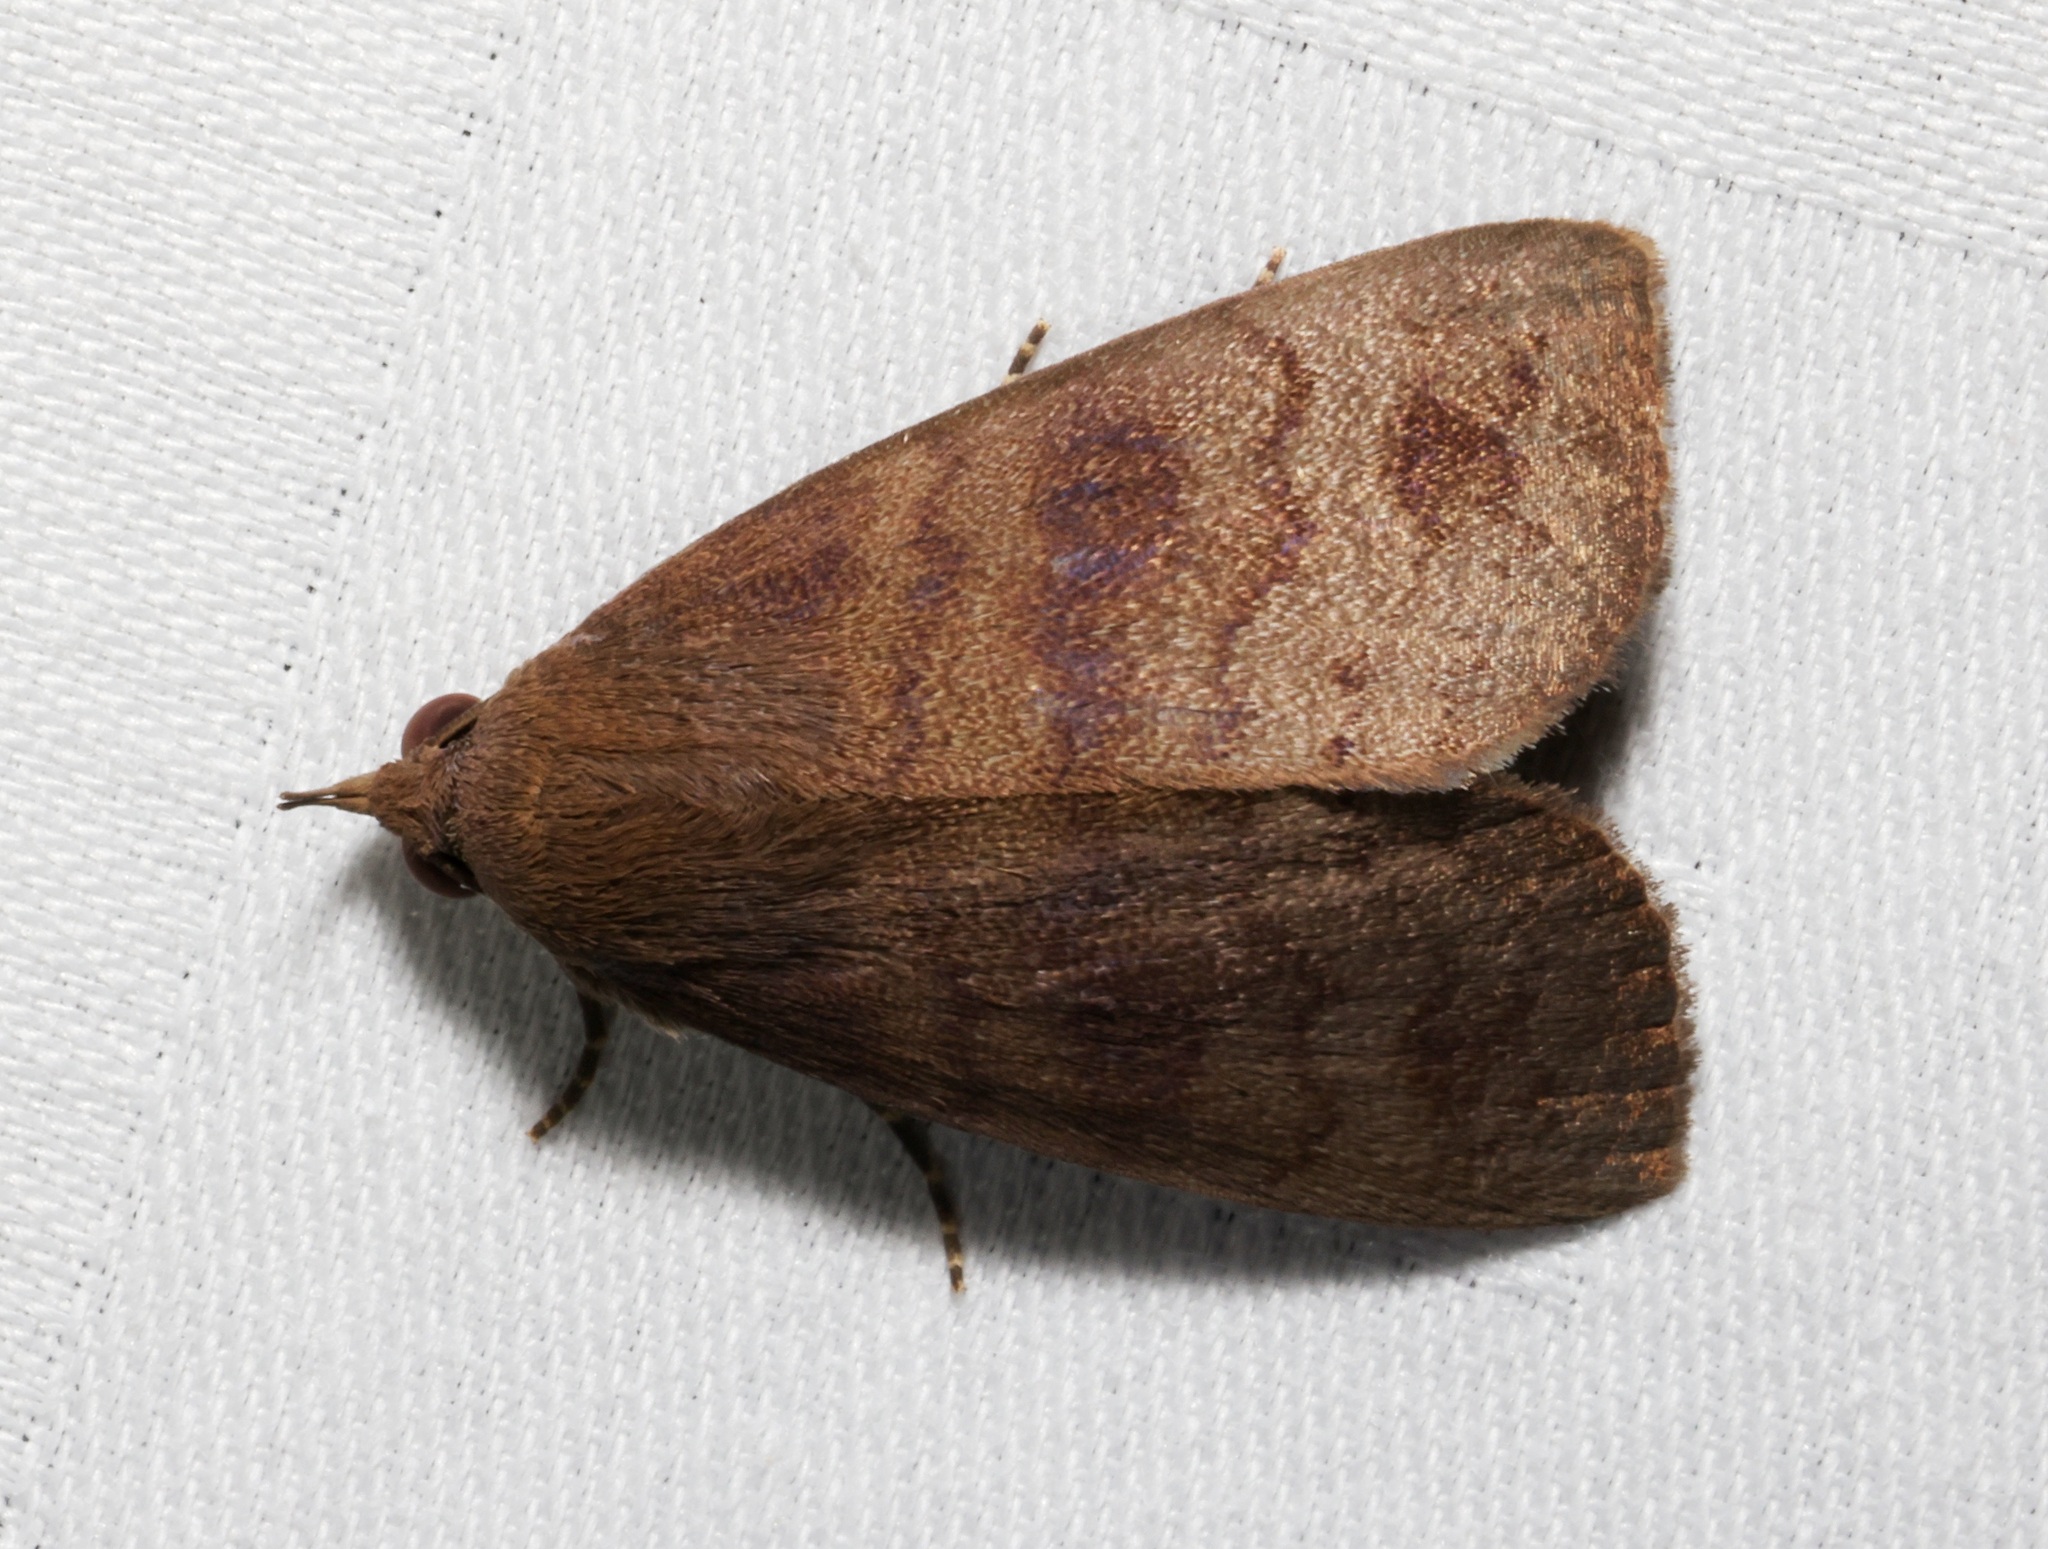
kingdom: Animalia
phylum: Arthropoda
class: Insecta
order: Lepidoptera
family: Erebidae
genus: Avitta
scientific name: Avitta fasciosa
